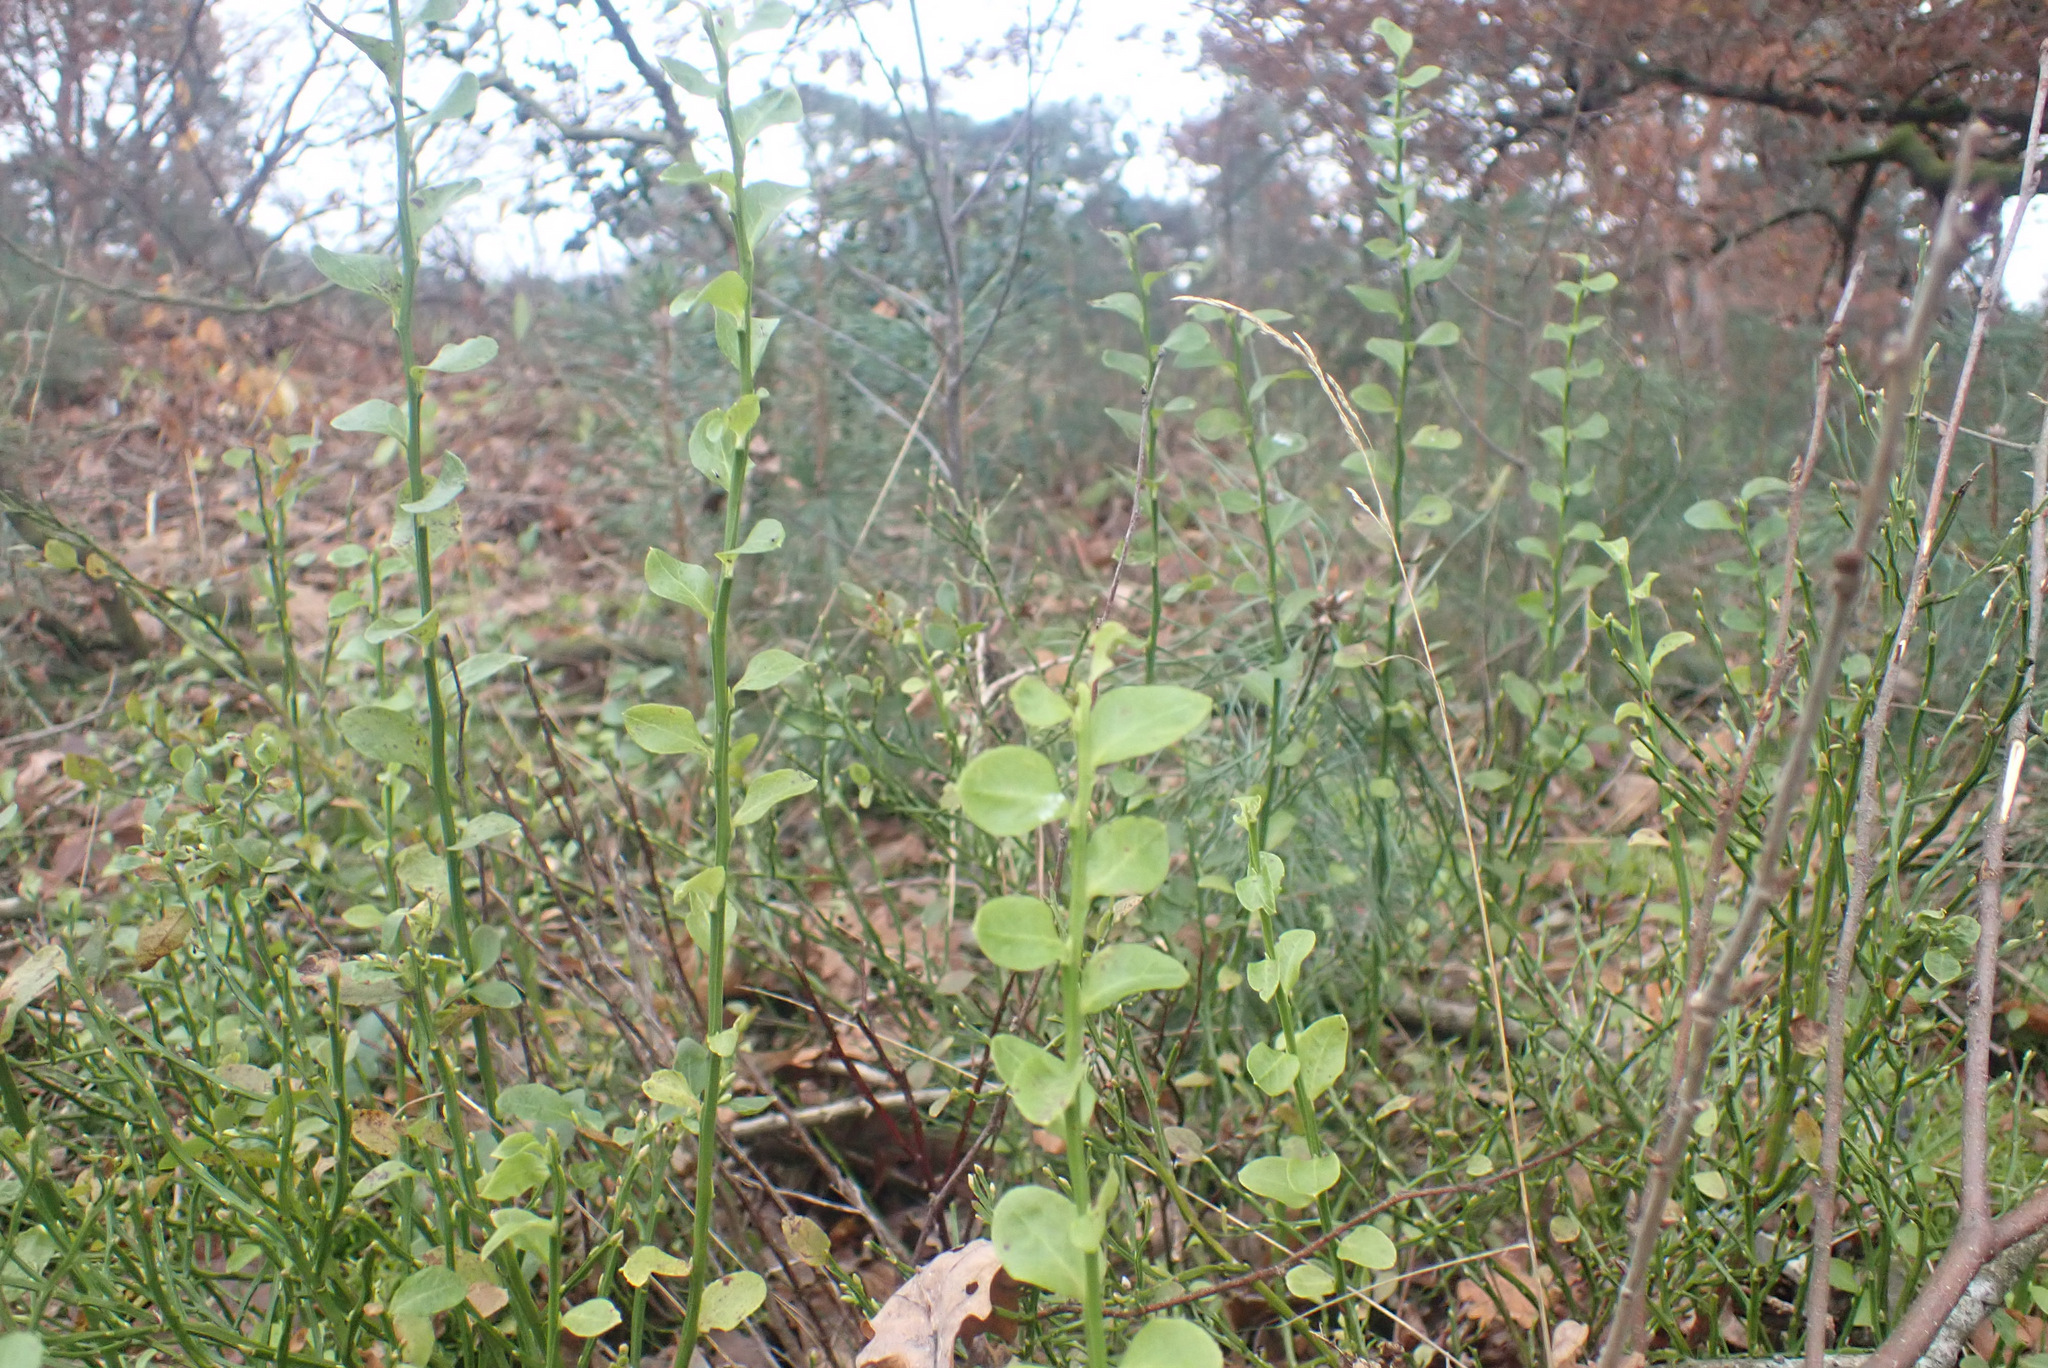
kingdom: Plantae
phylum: Tracheophyta
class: Magnoliopsida
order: Ericales
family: Ericaceae
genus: Vaccinium
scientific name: Vaccinium myrtillus
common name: Bilberry
